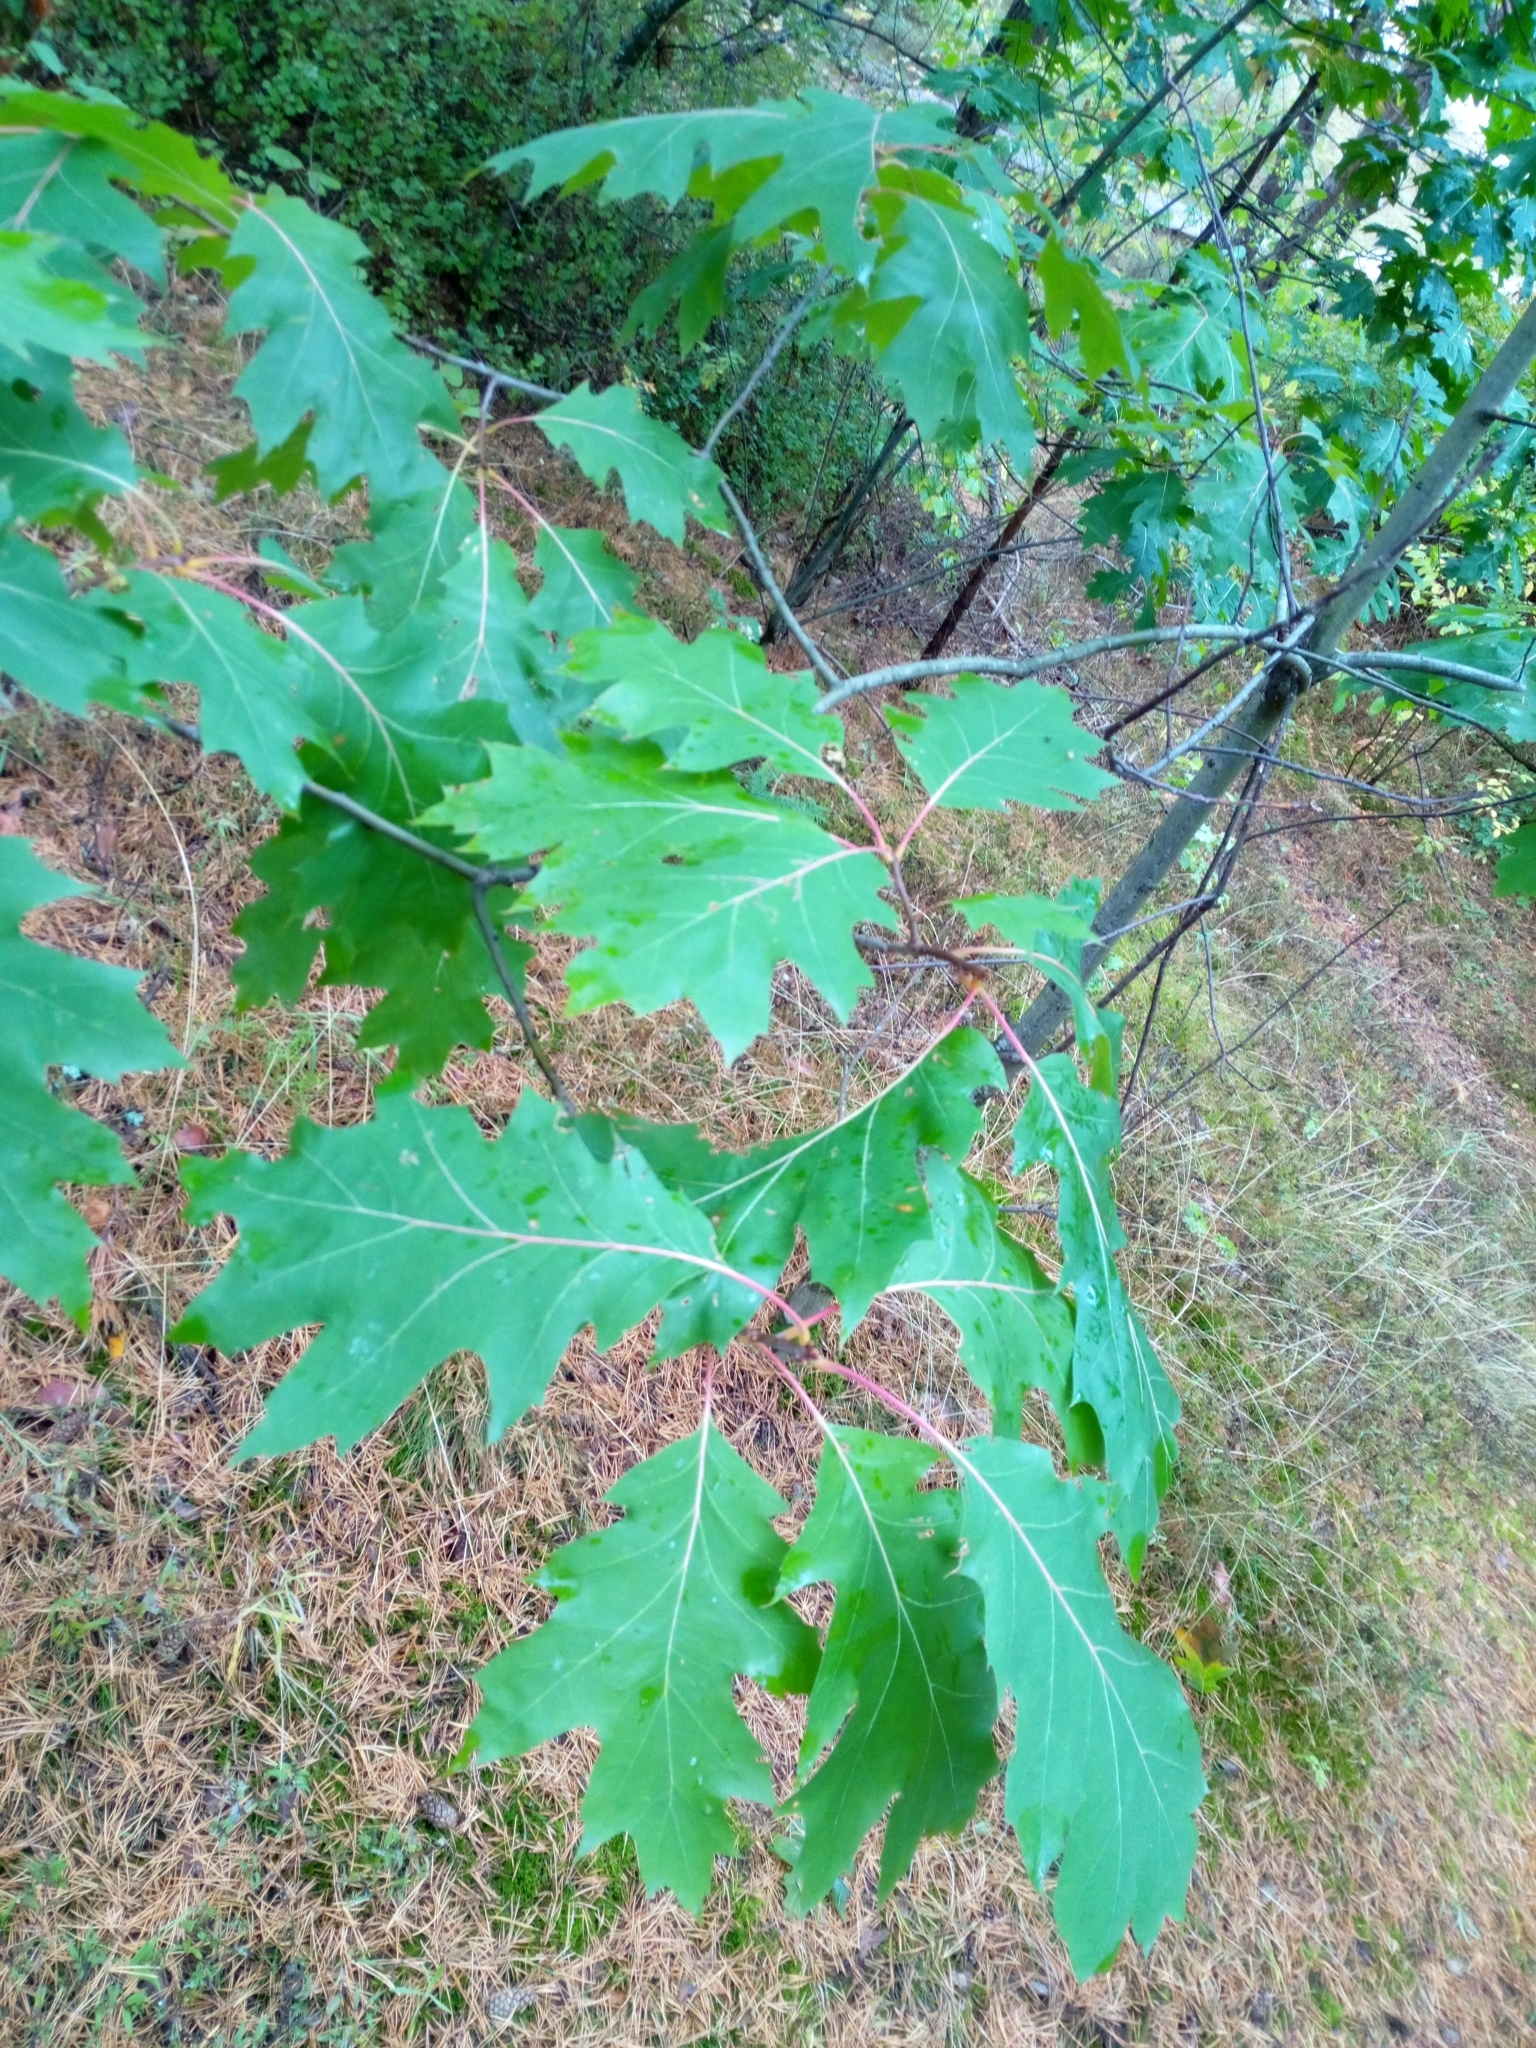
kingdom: Plantae
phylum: Tracheophyta
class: Magnoliopsida
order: Fagales
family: Fagaceae
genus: Quercus
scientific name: Quercus rubra
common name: Red oak
